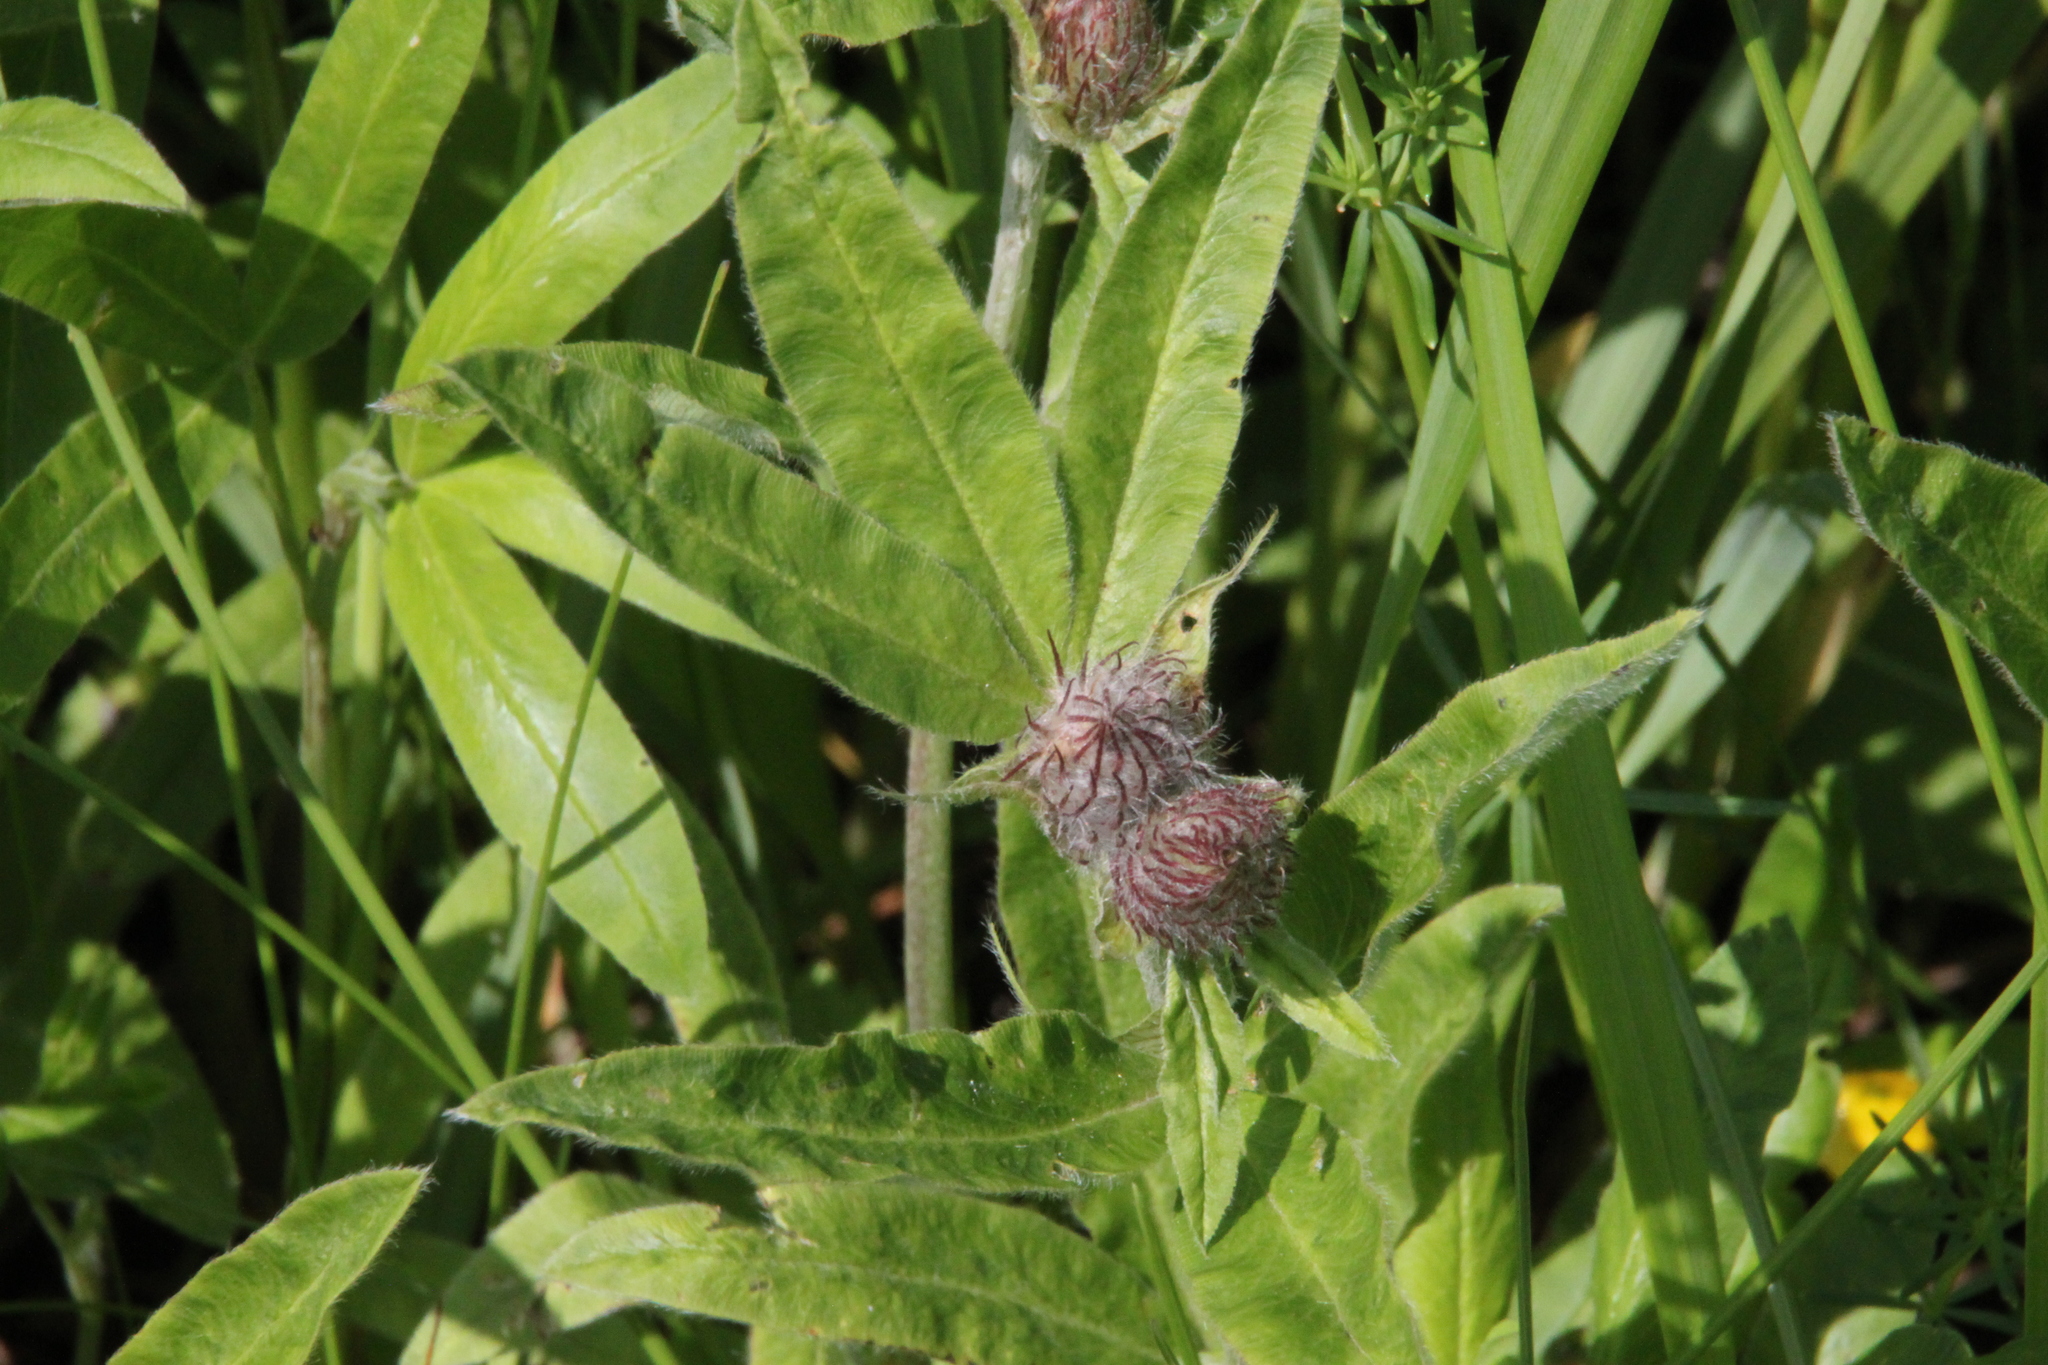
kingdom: Plantae
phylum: Tracheophyta
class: Magnoliopsida
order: Fabales
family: Fabaceae
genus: Trifolium
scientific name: Trifolium alpestre
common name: Owl-head clover
